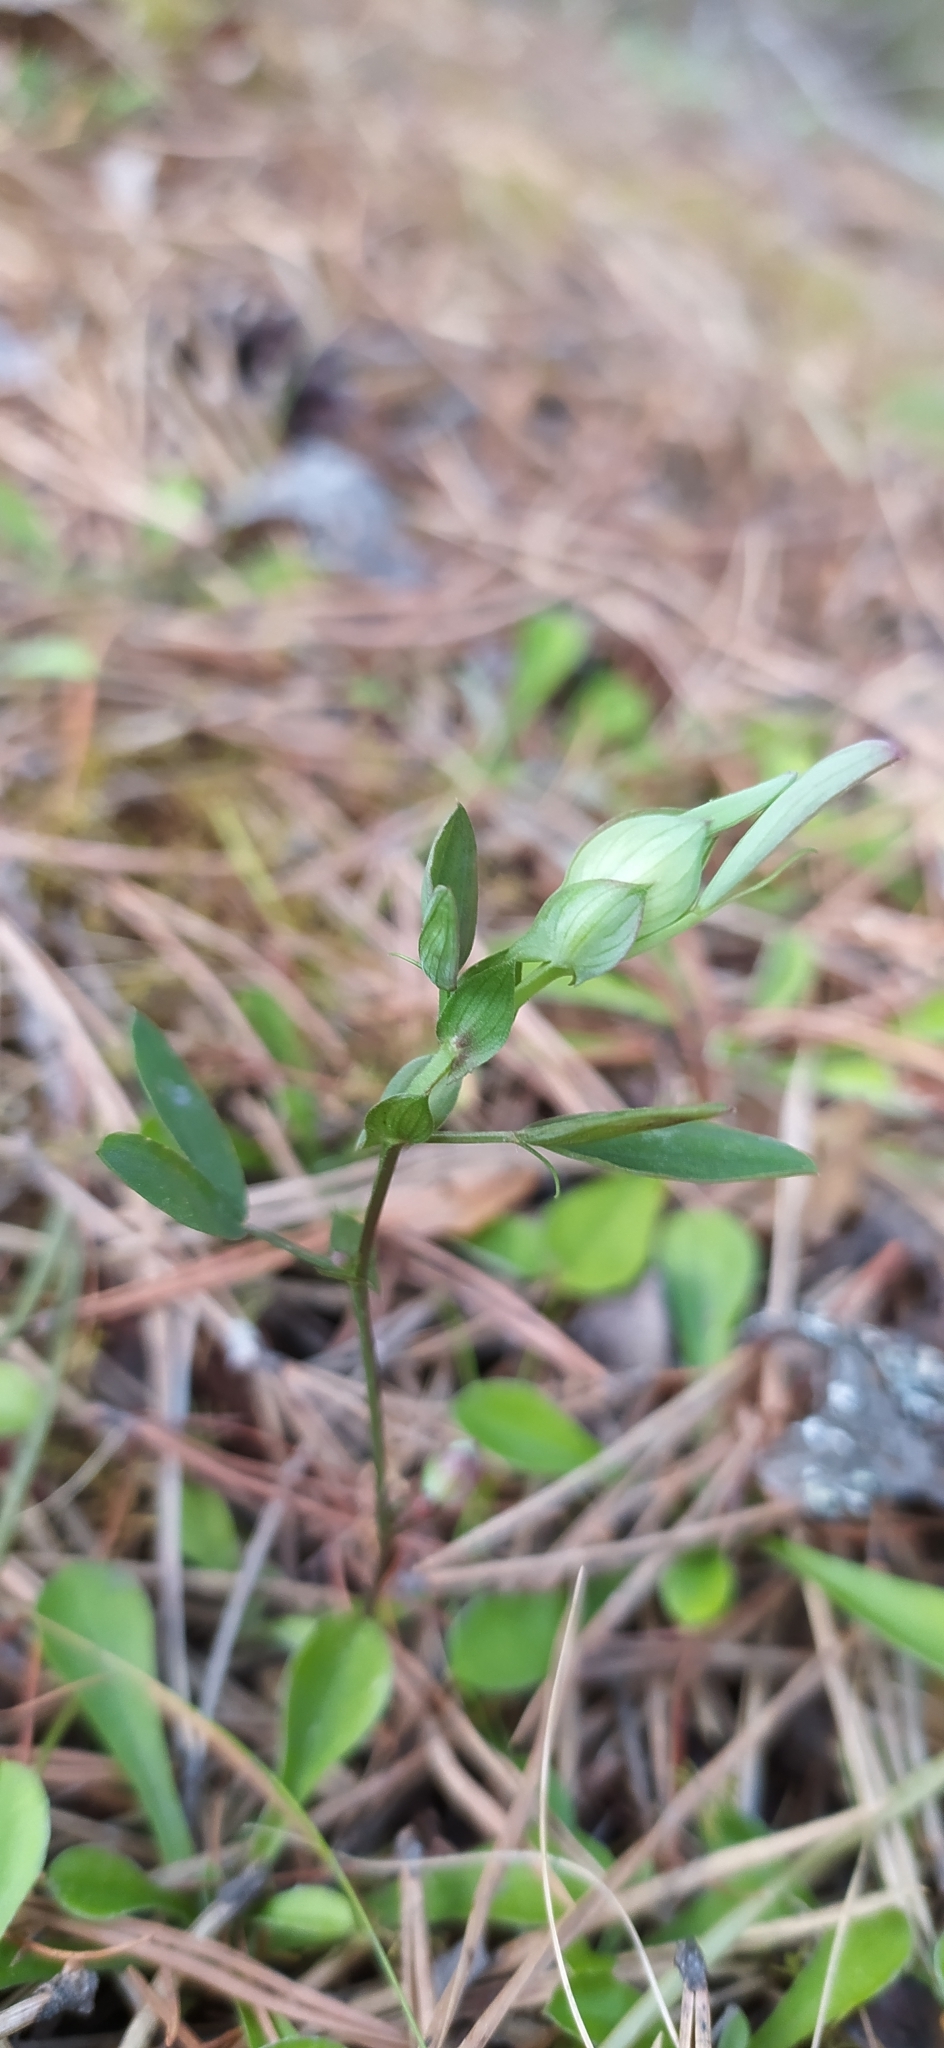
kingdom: Plantae
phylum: Tracheophyta
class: Magnoliopsida
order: Fabales
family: Fabaceae
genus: Lathyrus
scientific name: Lathyrus pratensis
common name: Meadow vetchling
